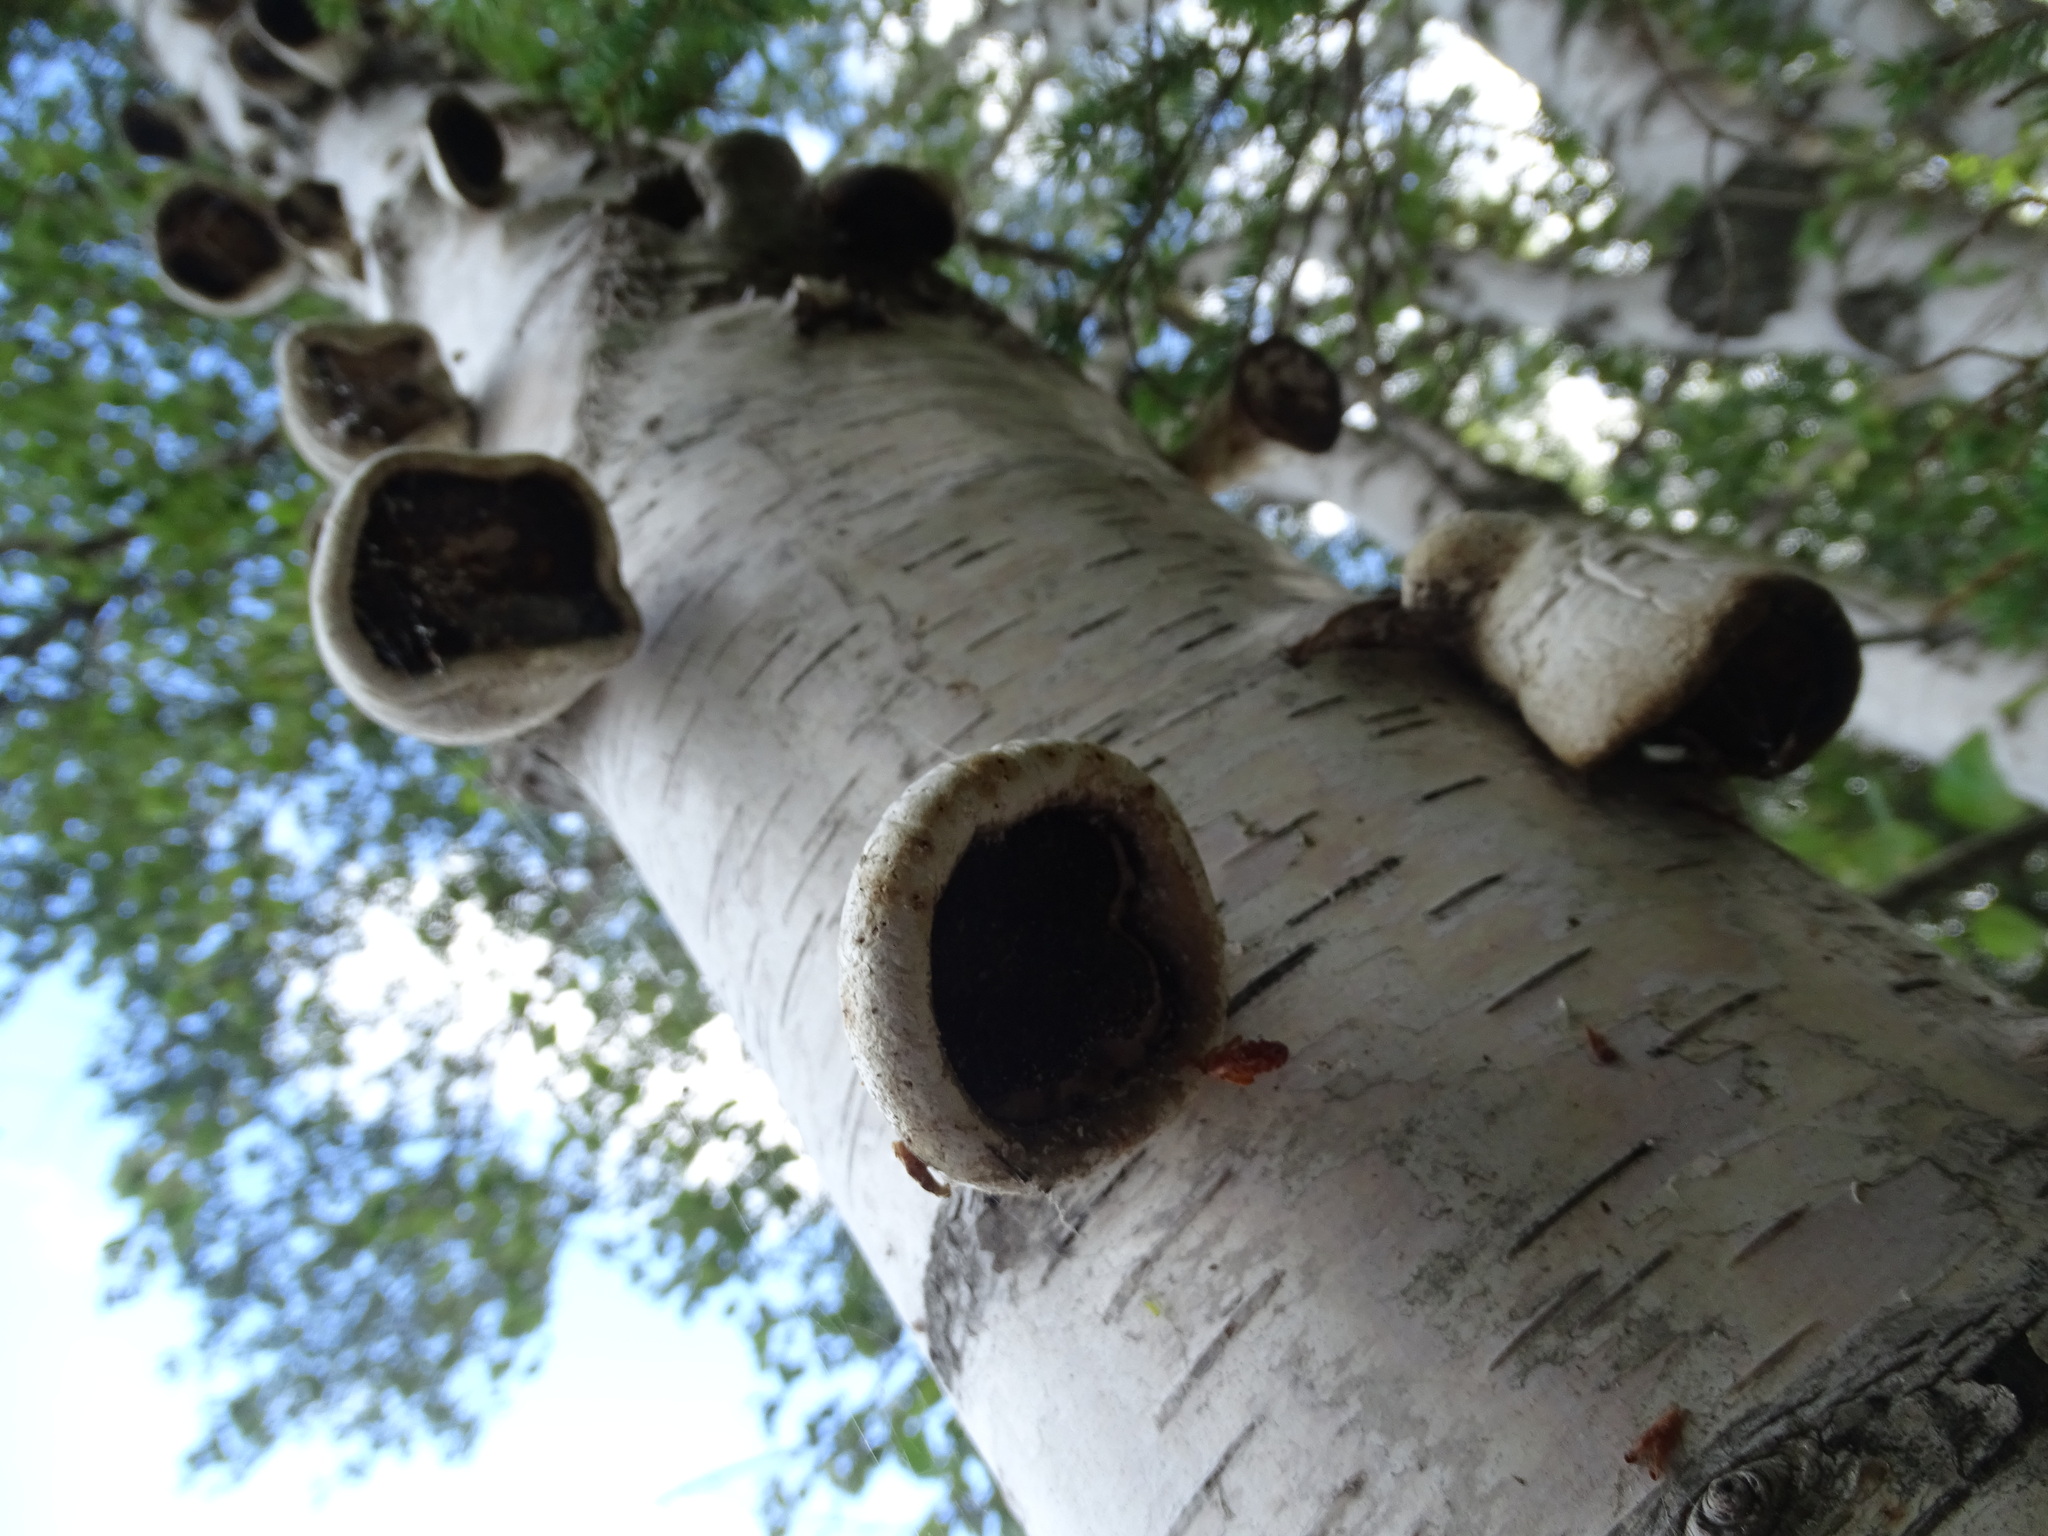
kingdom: Fungi
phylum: Basidiomycota
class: Agaricomycetes
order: Polyporales
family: Fomitopsidaceae
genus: Fomitopsis
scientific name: Fomitopsis betulina
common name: Birch polypore
